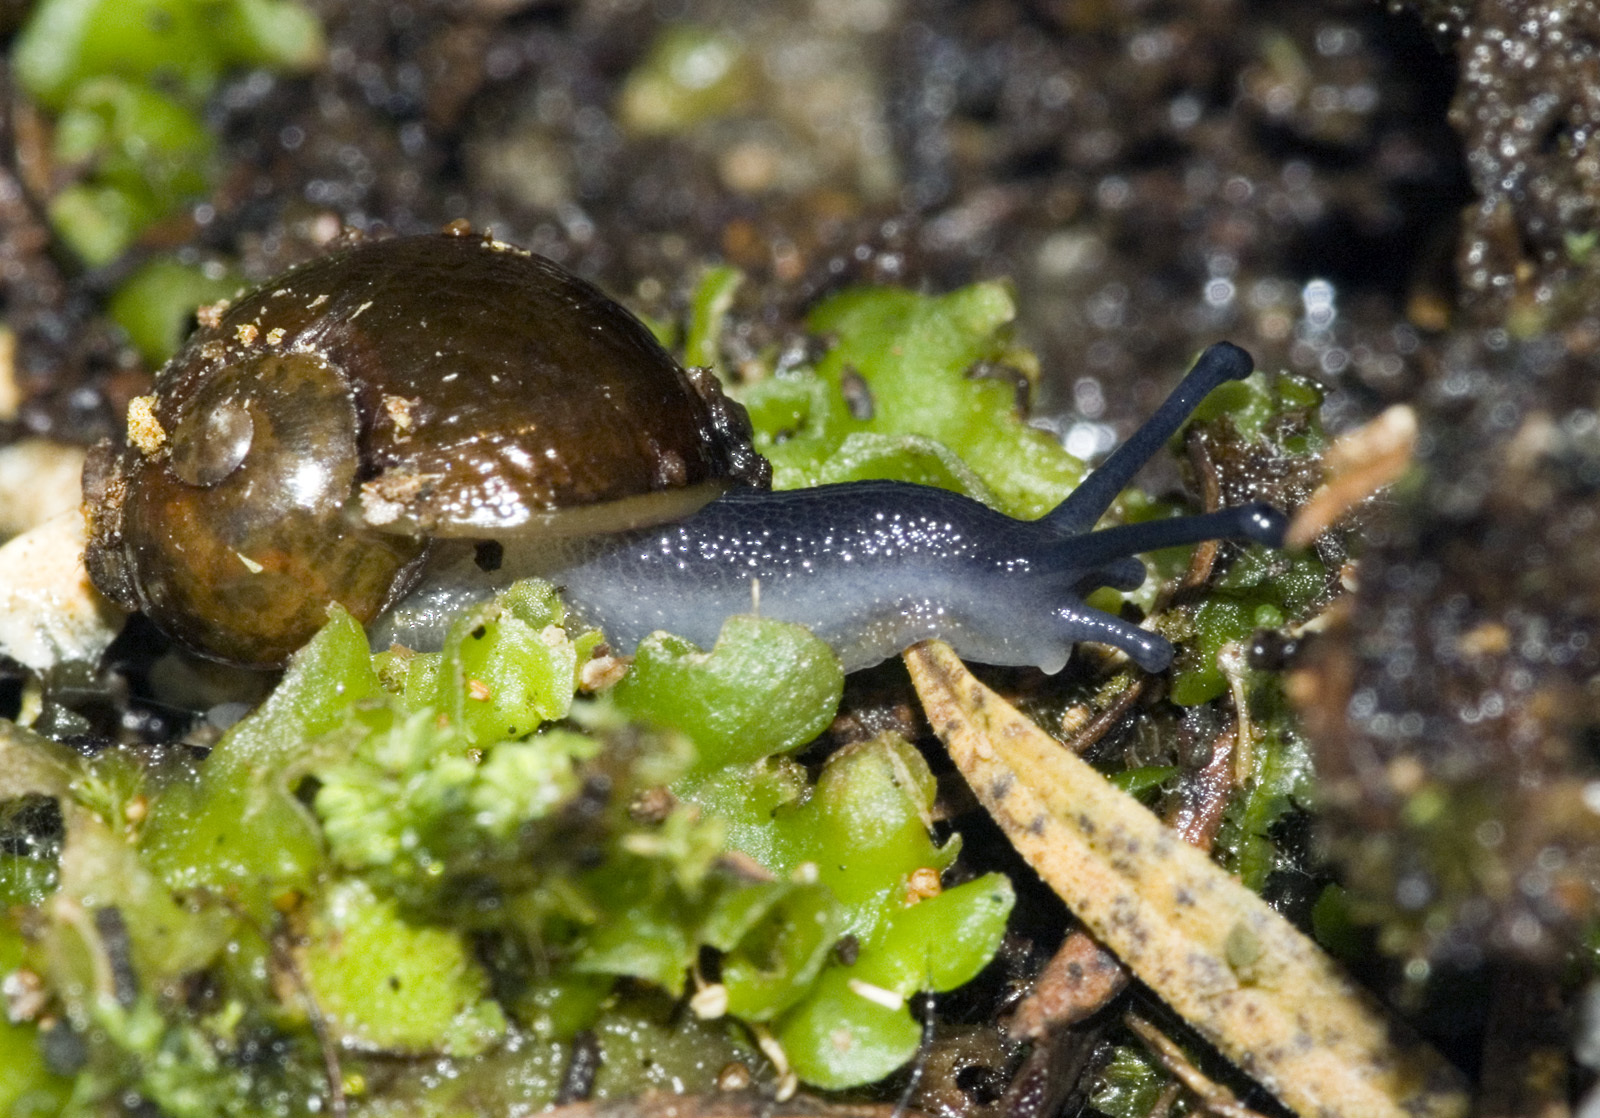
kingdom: Animalia
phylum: Mollusca
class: Gastropoda
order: Stylommatophora
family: Rhytididae
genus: Wainuia
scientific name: Wainuia urnula
